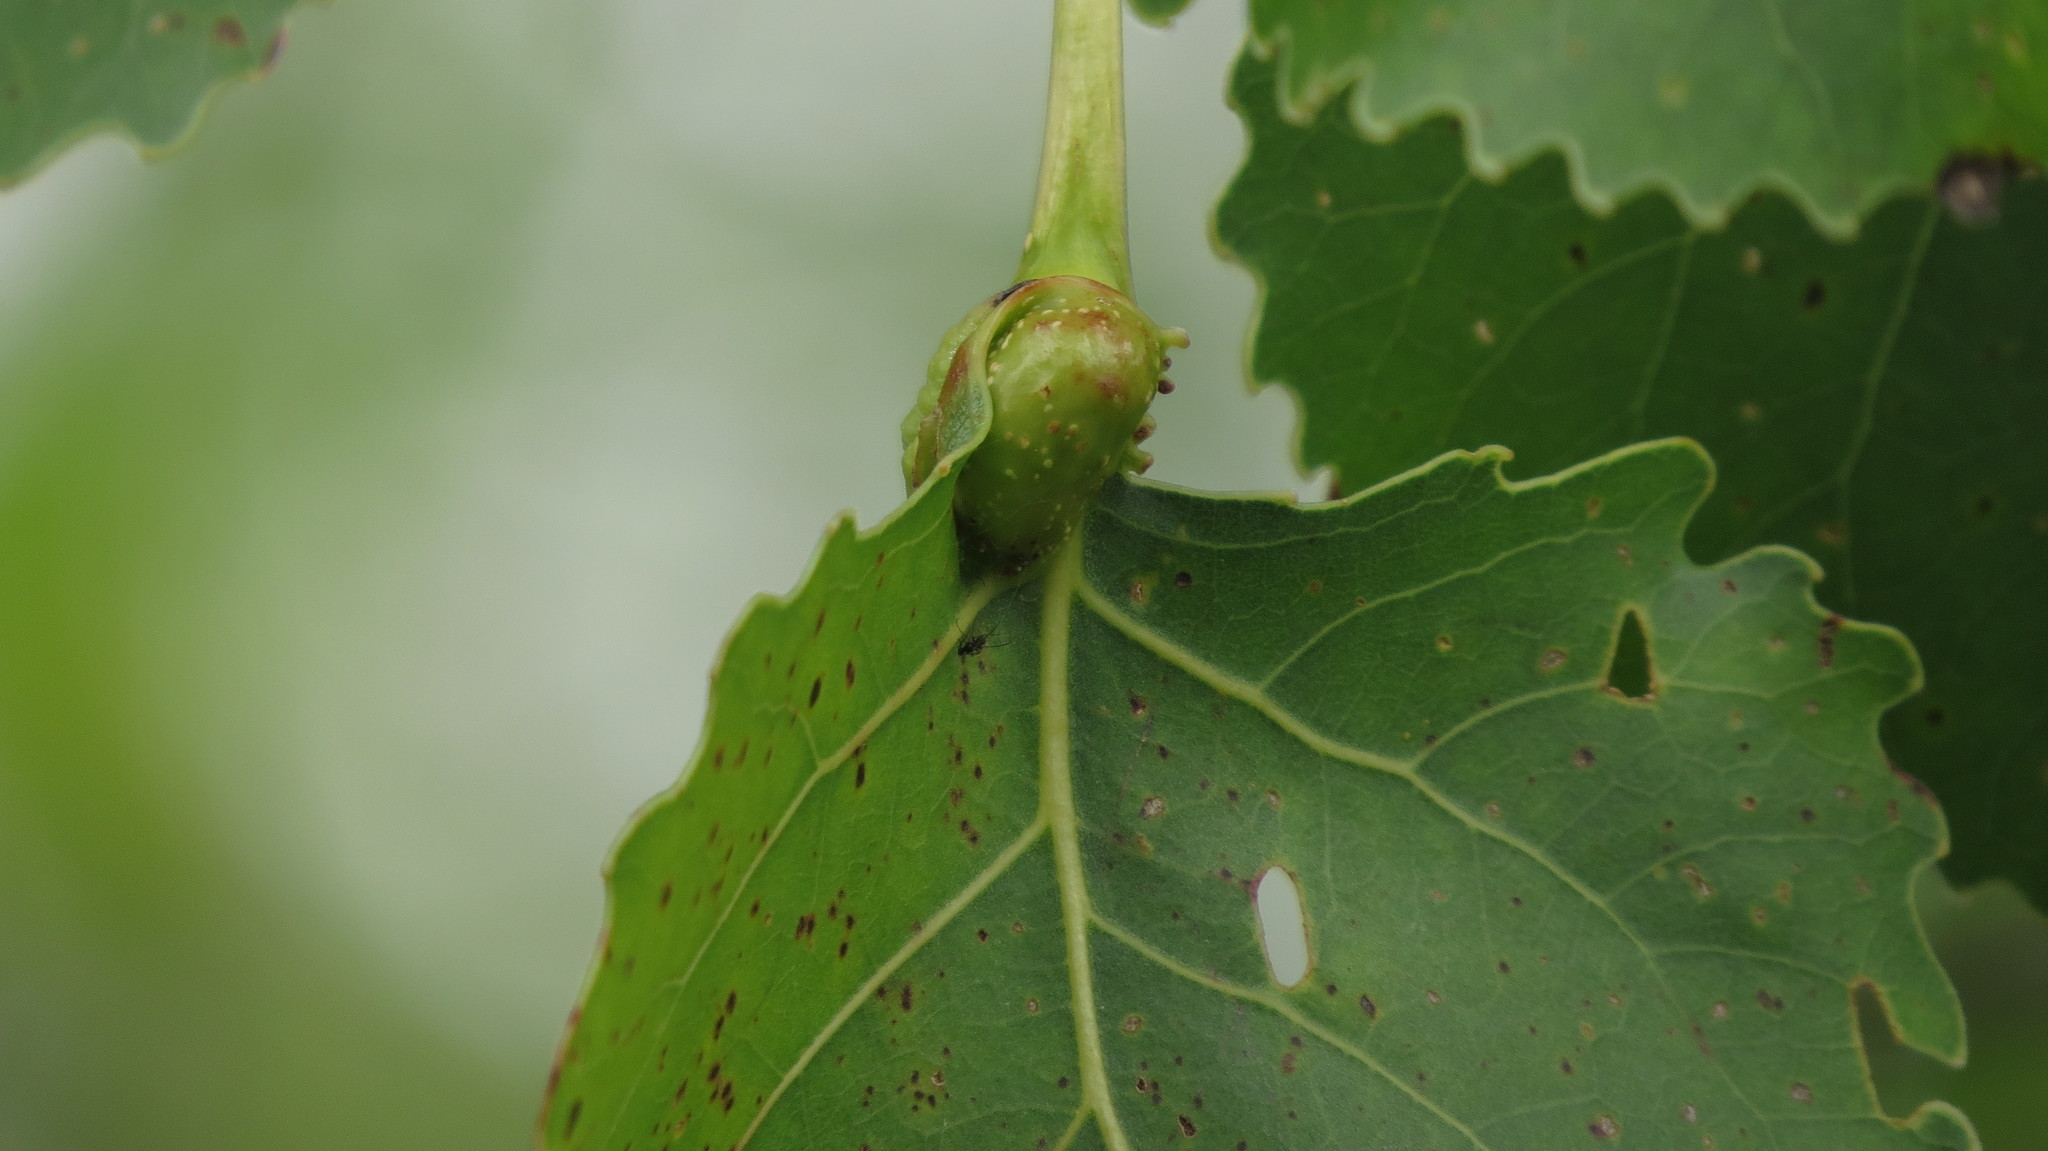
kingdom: Animalia
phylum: Arthropoda
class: Insecta
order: Hemiptera
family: Aphididae
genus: Pemphigus
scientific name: Pemphigus populicaulis
